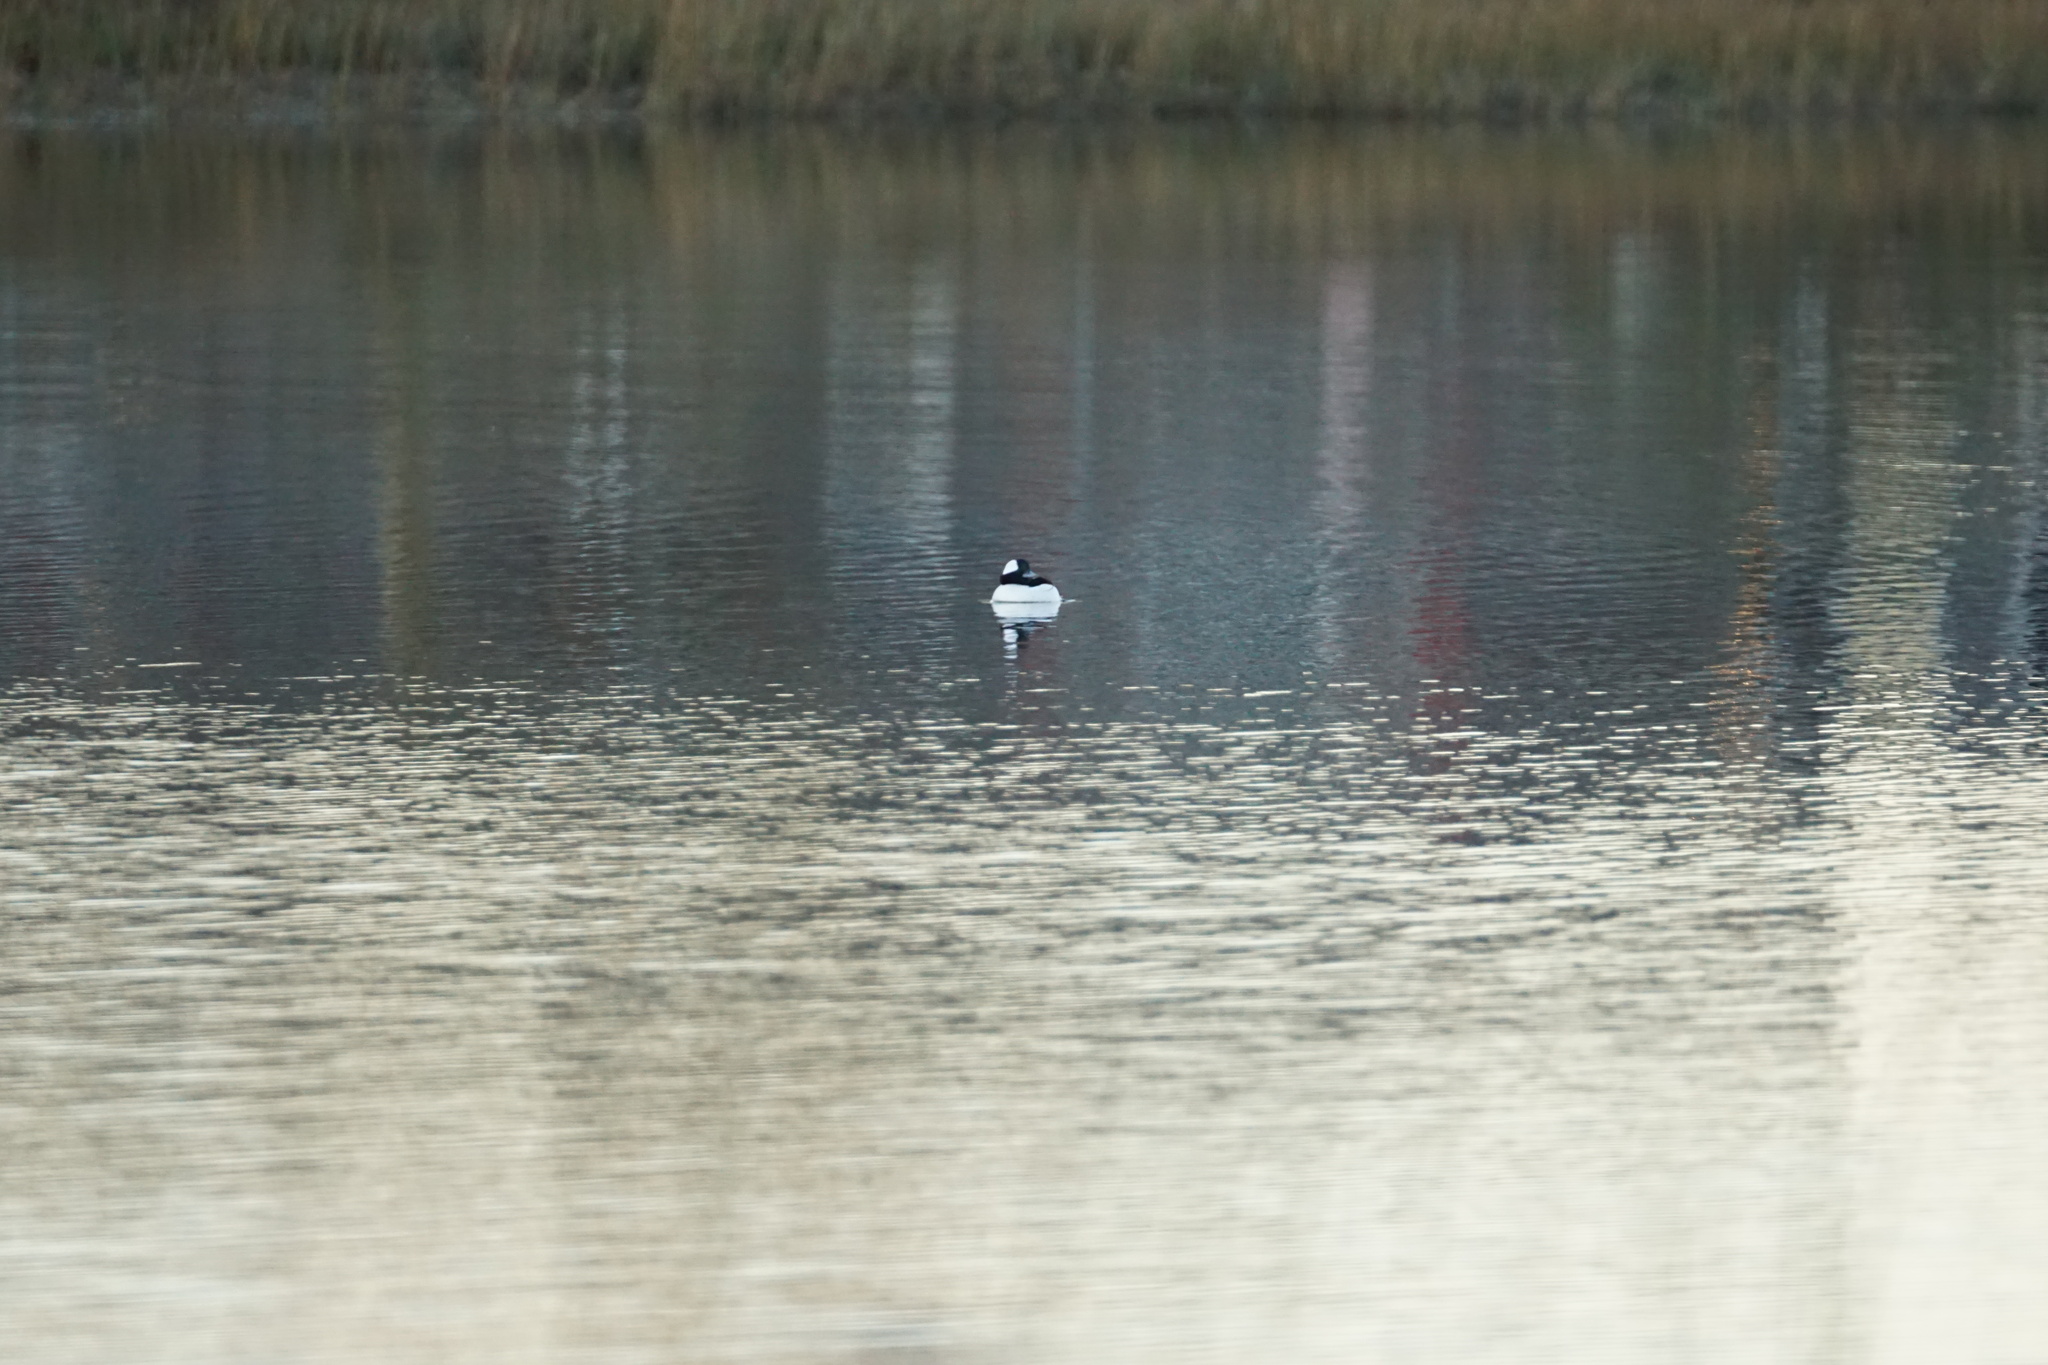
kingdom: Animalia
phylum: Chordata
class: Aves
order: Anseriformes
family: Anatidae
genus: Bucephala
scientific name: Bucephala albeola
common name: Bufflehead
